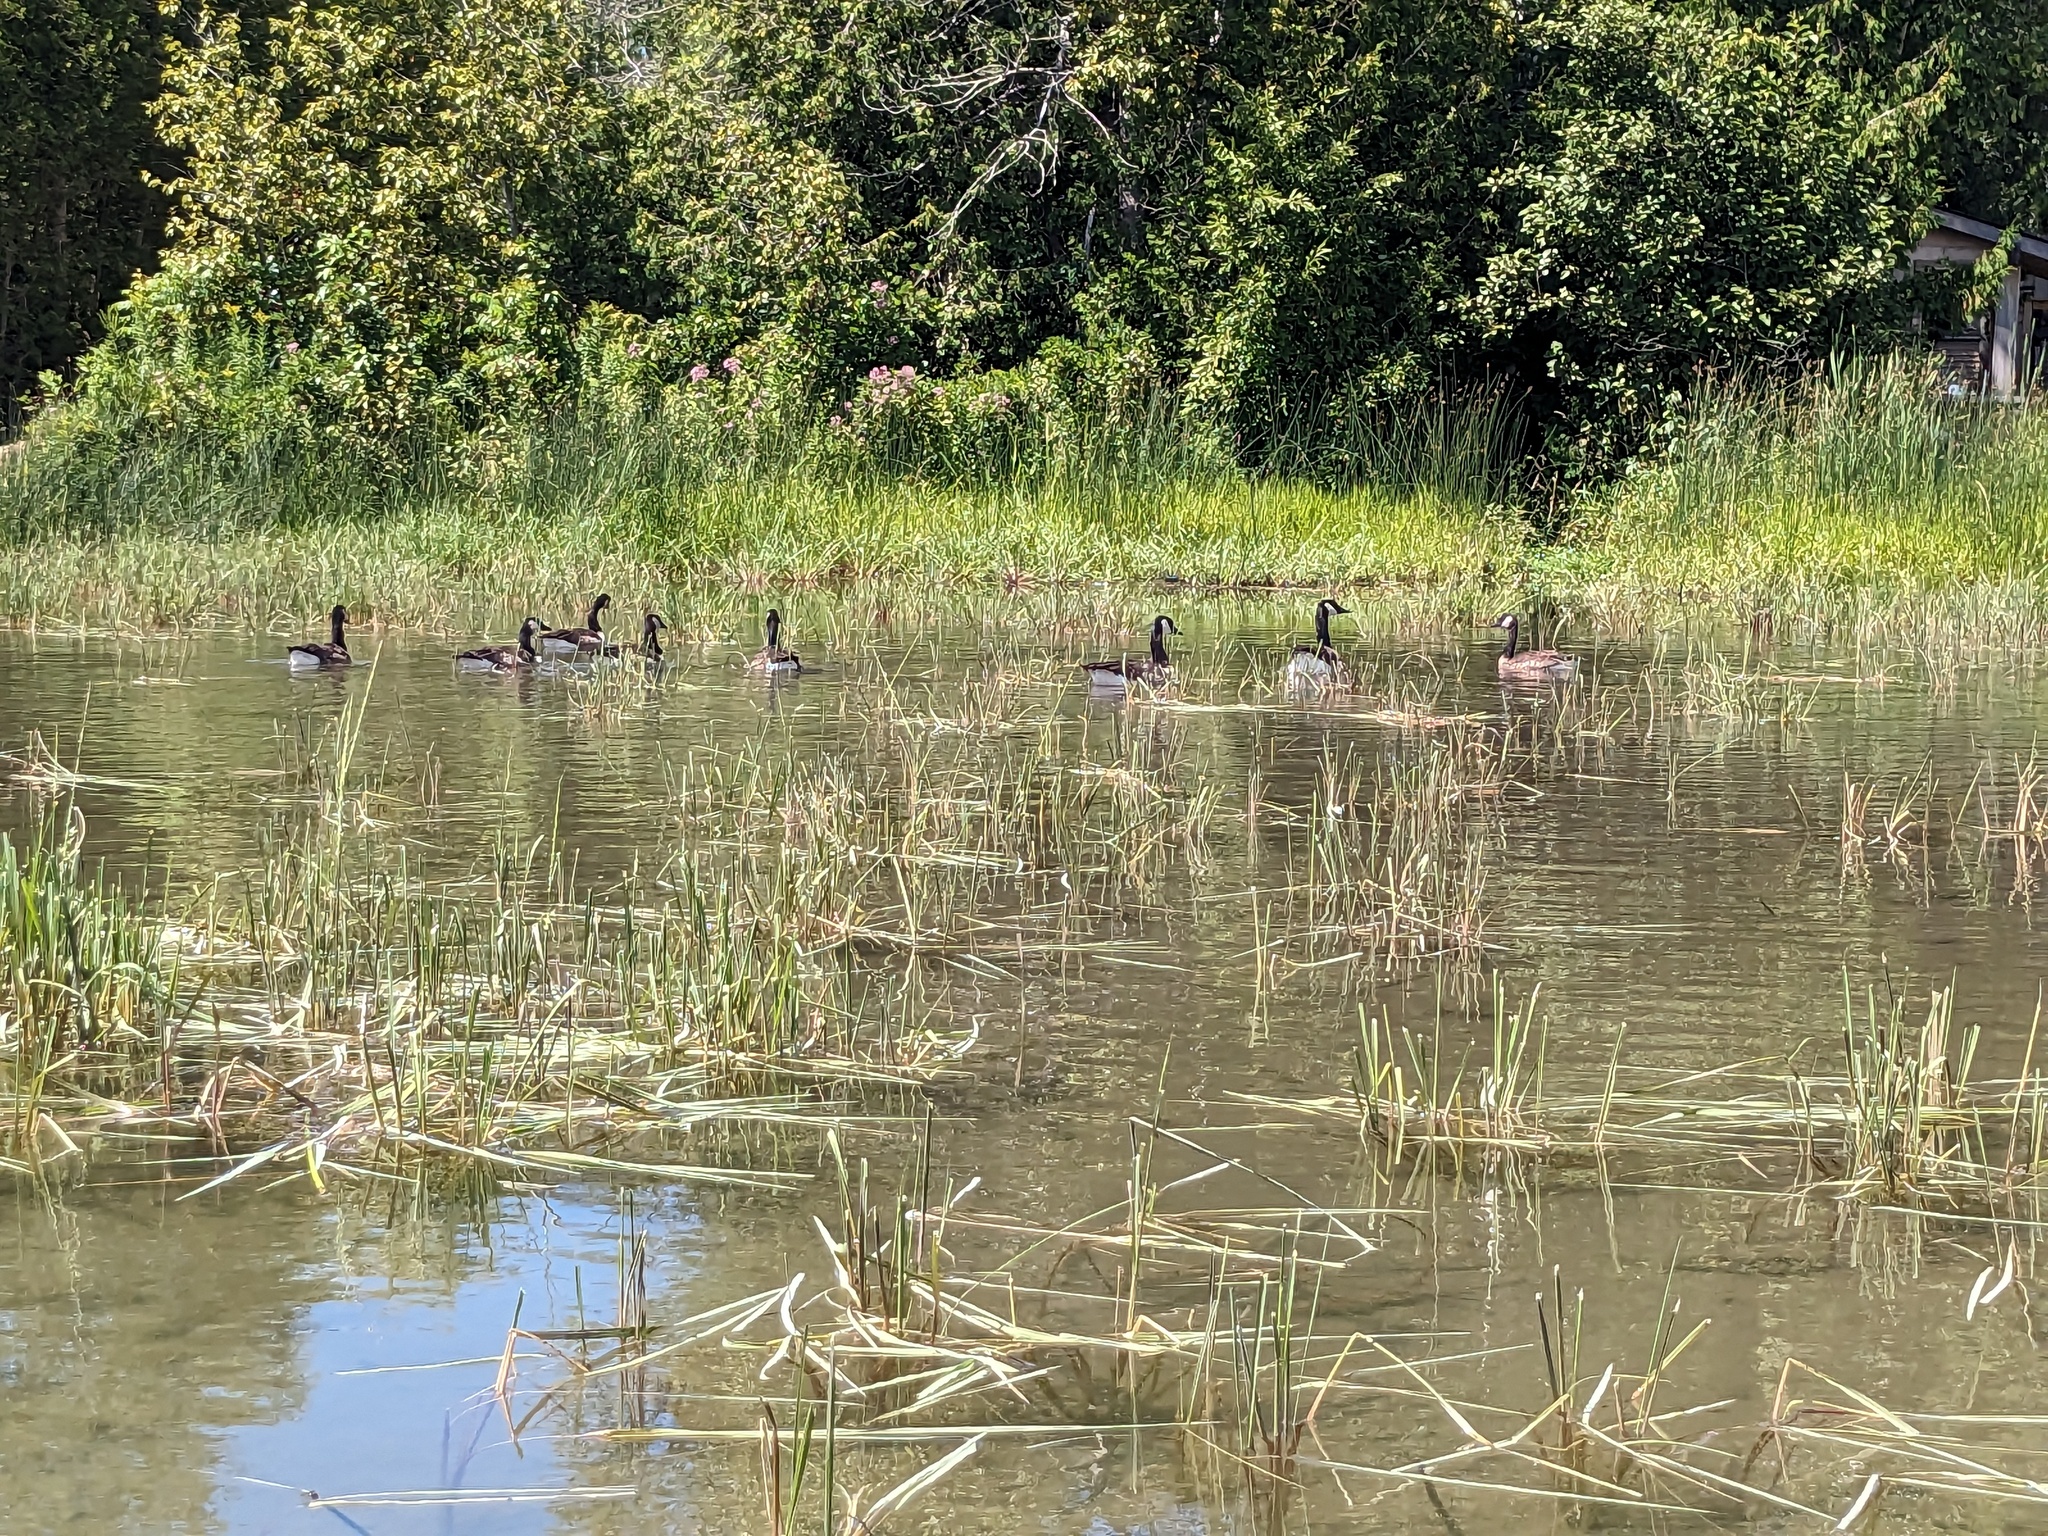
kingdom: Animalia
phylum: Chordata
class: Aves
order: Anseriformes
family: Anatidae
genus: Branta
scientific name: Branta canadensis
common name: Canada goose
